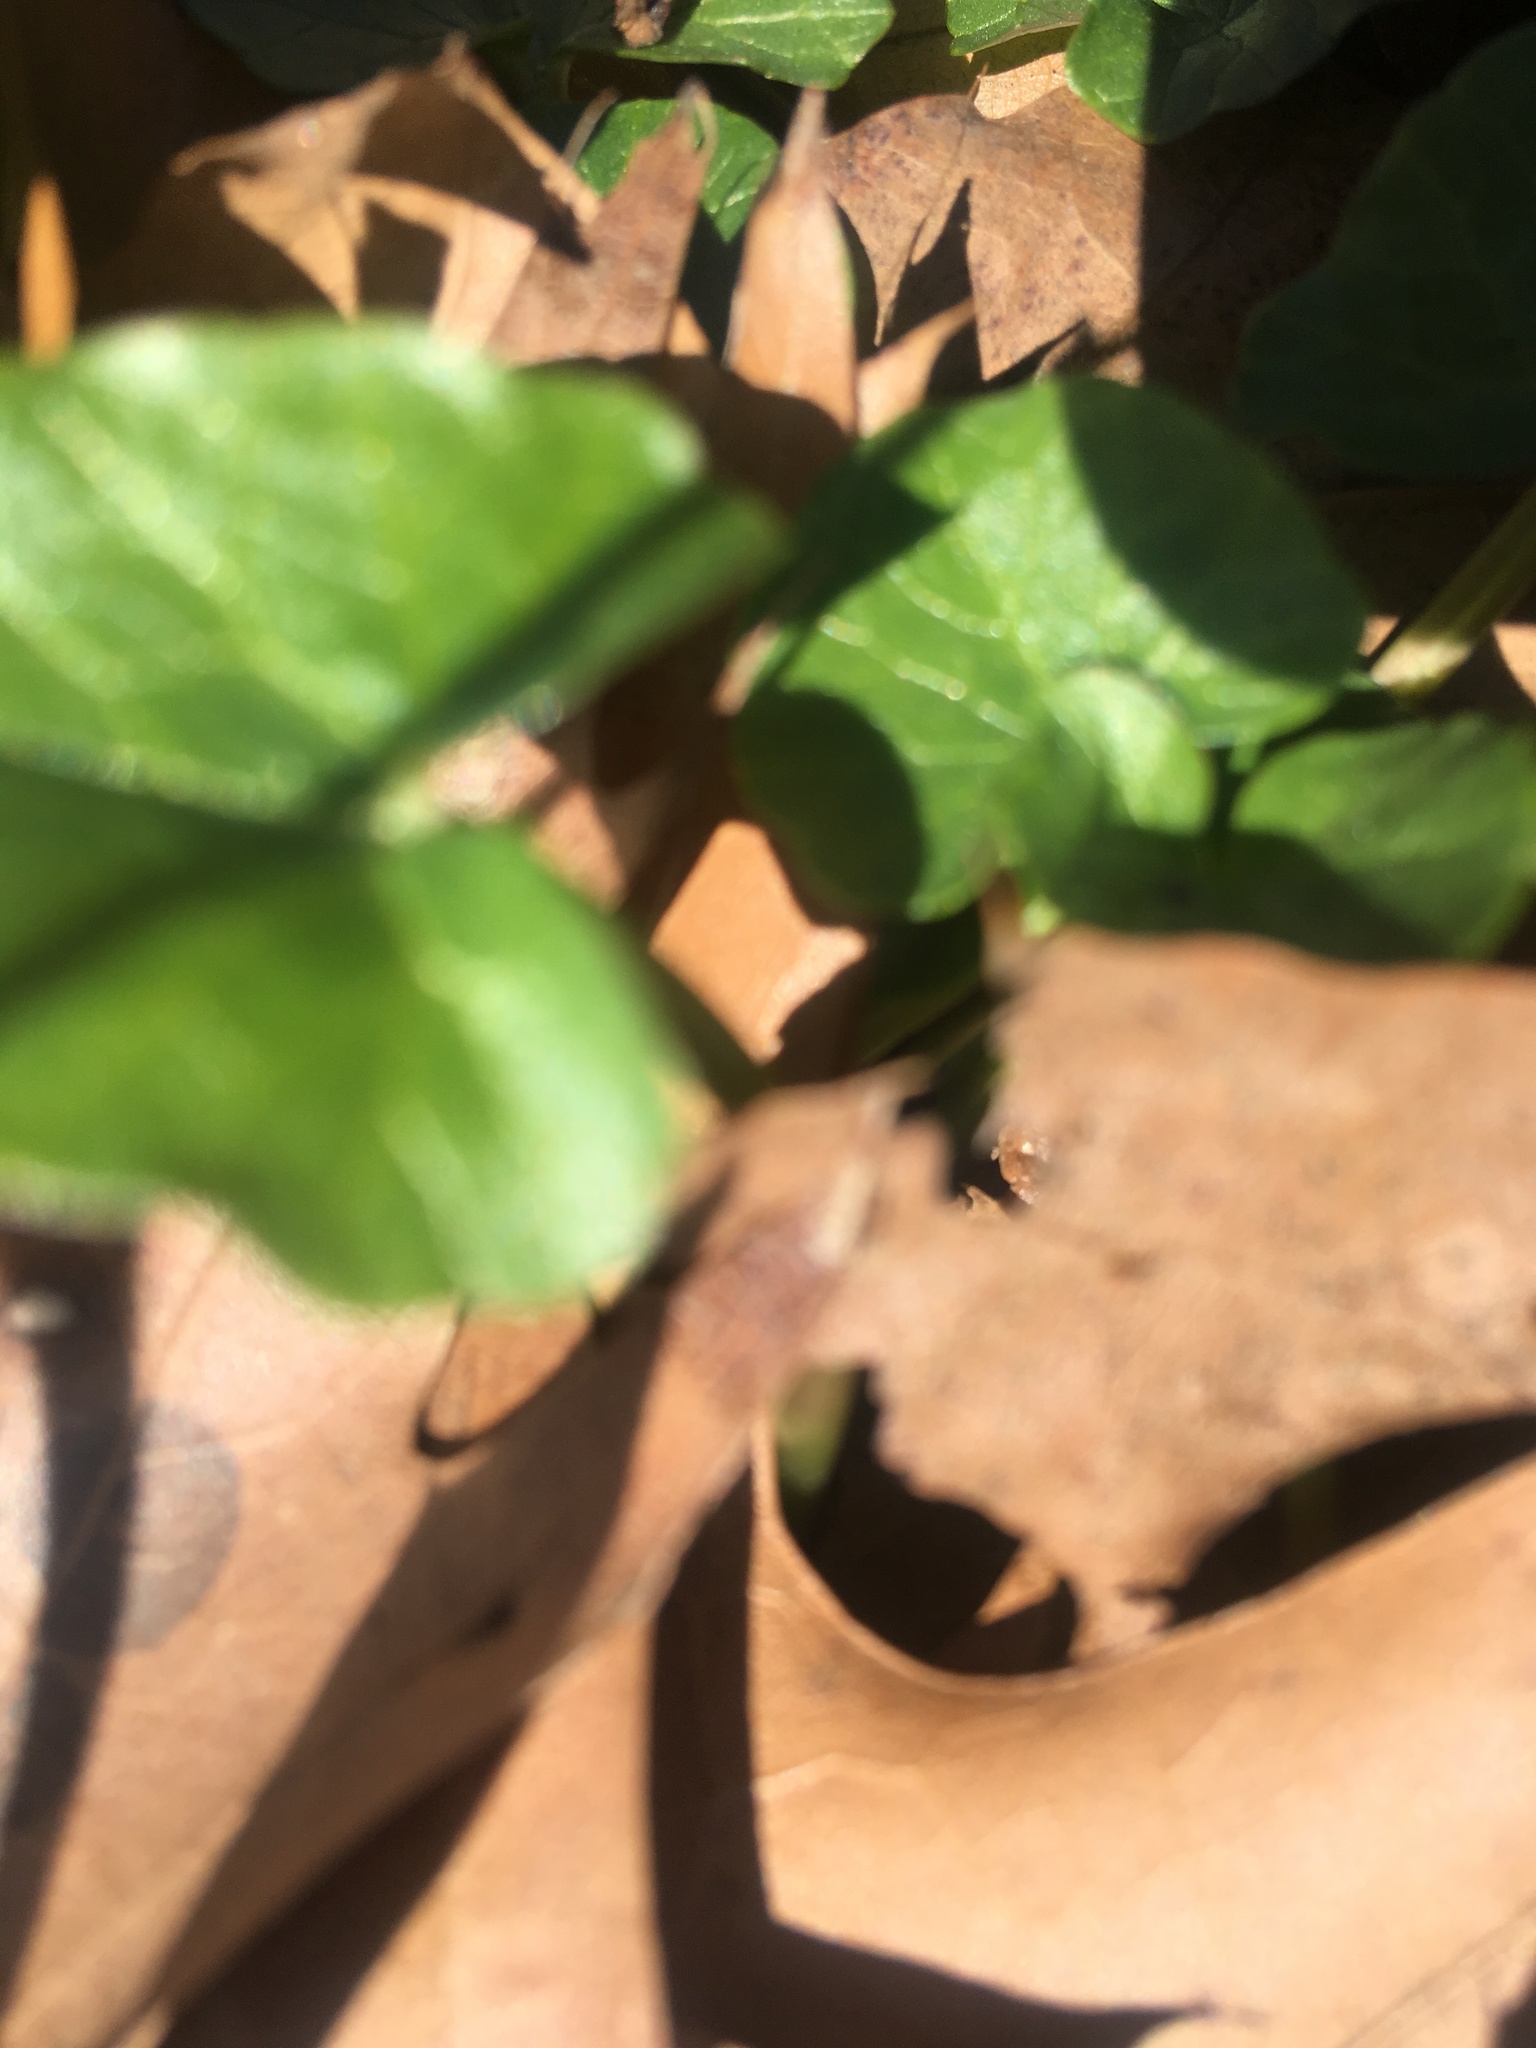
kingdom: Plantae
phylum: Tracheophyta
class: Magnoliopsida
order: Ranunculales
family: Ranunculaceae
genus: Ficaria
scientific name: Ficaria verna
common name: Lesser celandine
